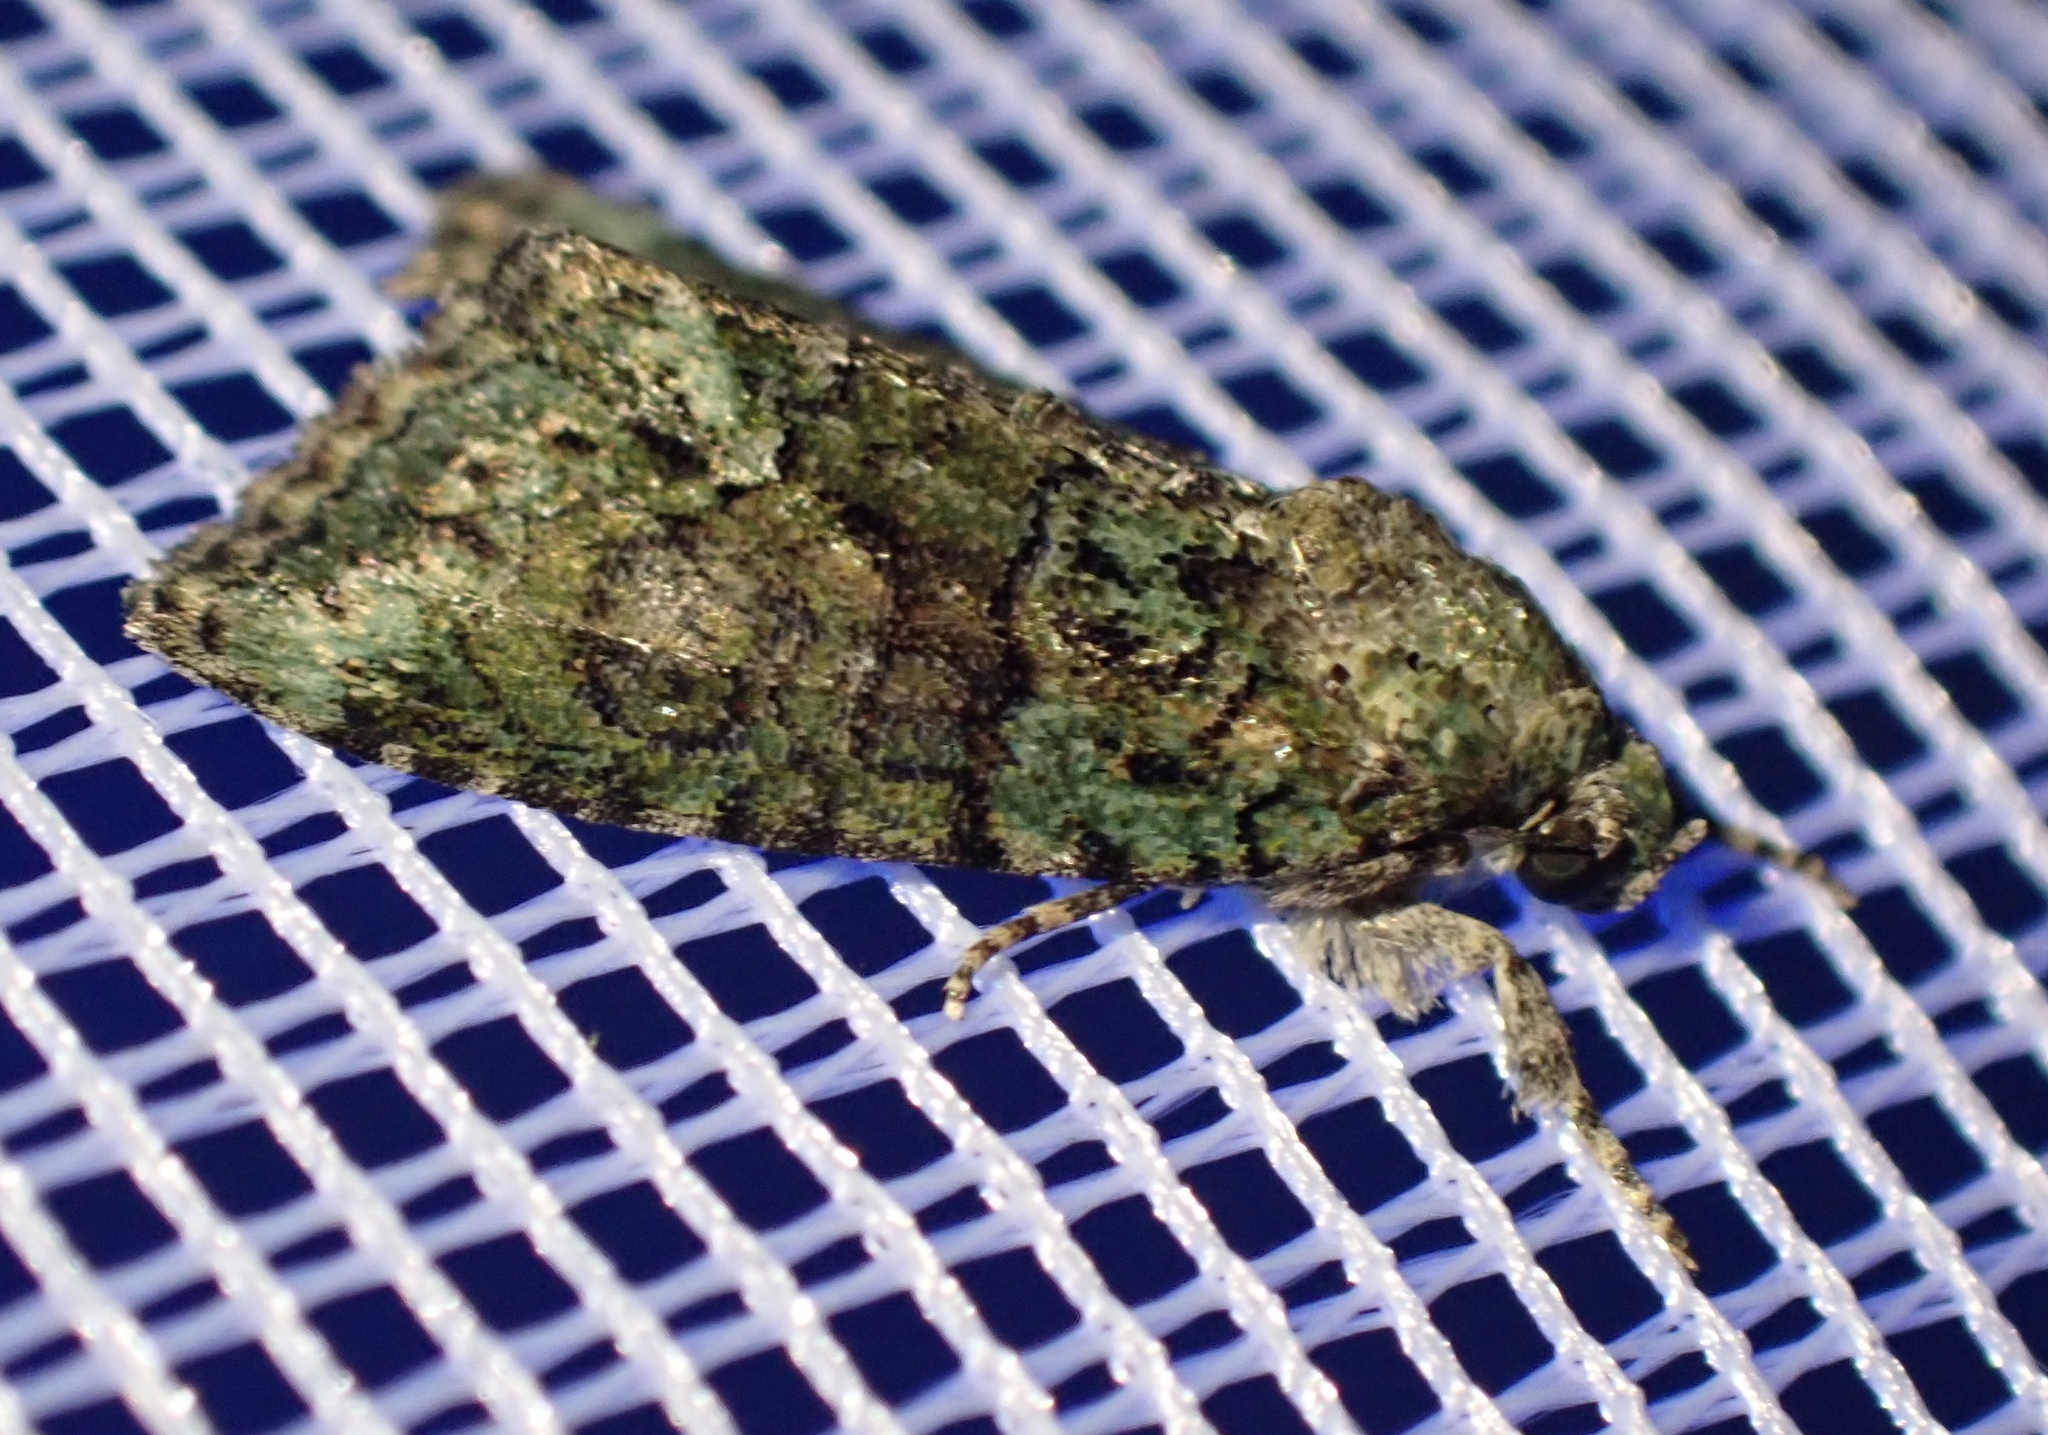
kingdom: Animalia
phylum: Arthropoda
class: Insecta
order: Lepidoptera
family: Noctuidae
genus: Cryphia
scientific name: Cryphia algae
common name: Tree-lichen beauty
